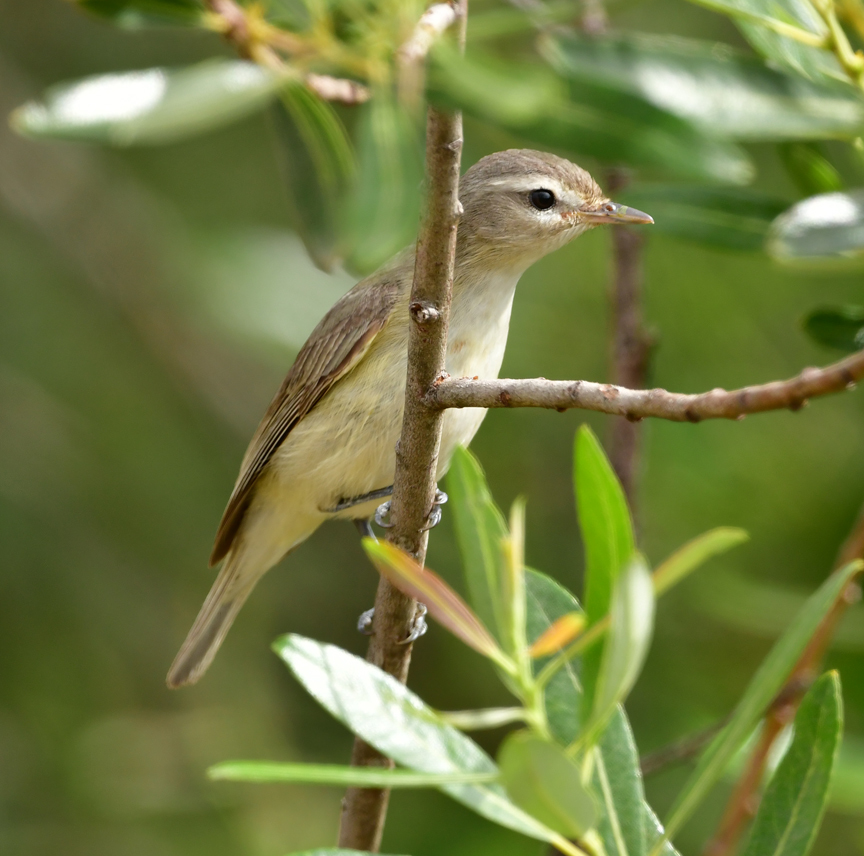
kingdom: Animalia
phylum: Chordata
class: Aves
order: Passeriformes
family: Vireonidae
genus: Vireo
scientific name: Vireo gilvus
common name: Warbling vireo
